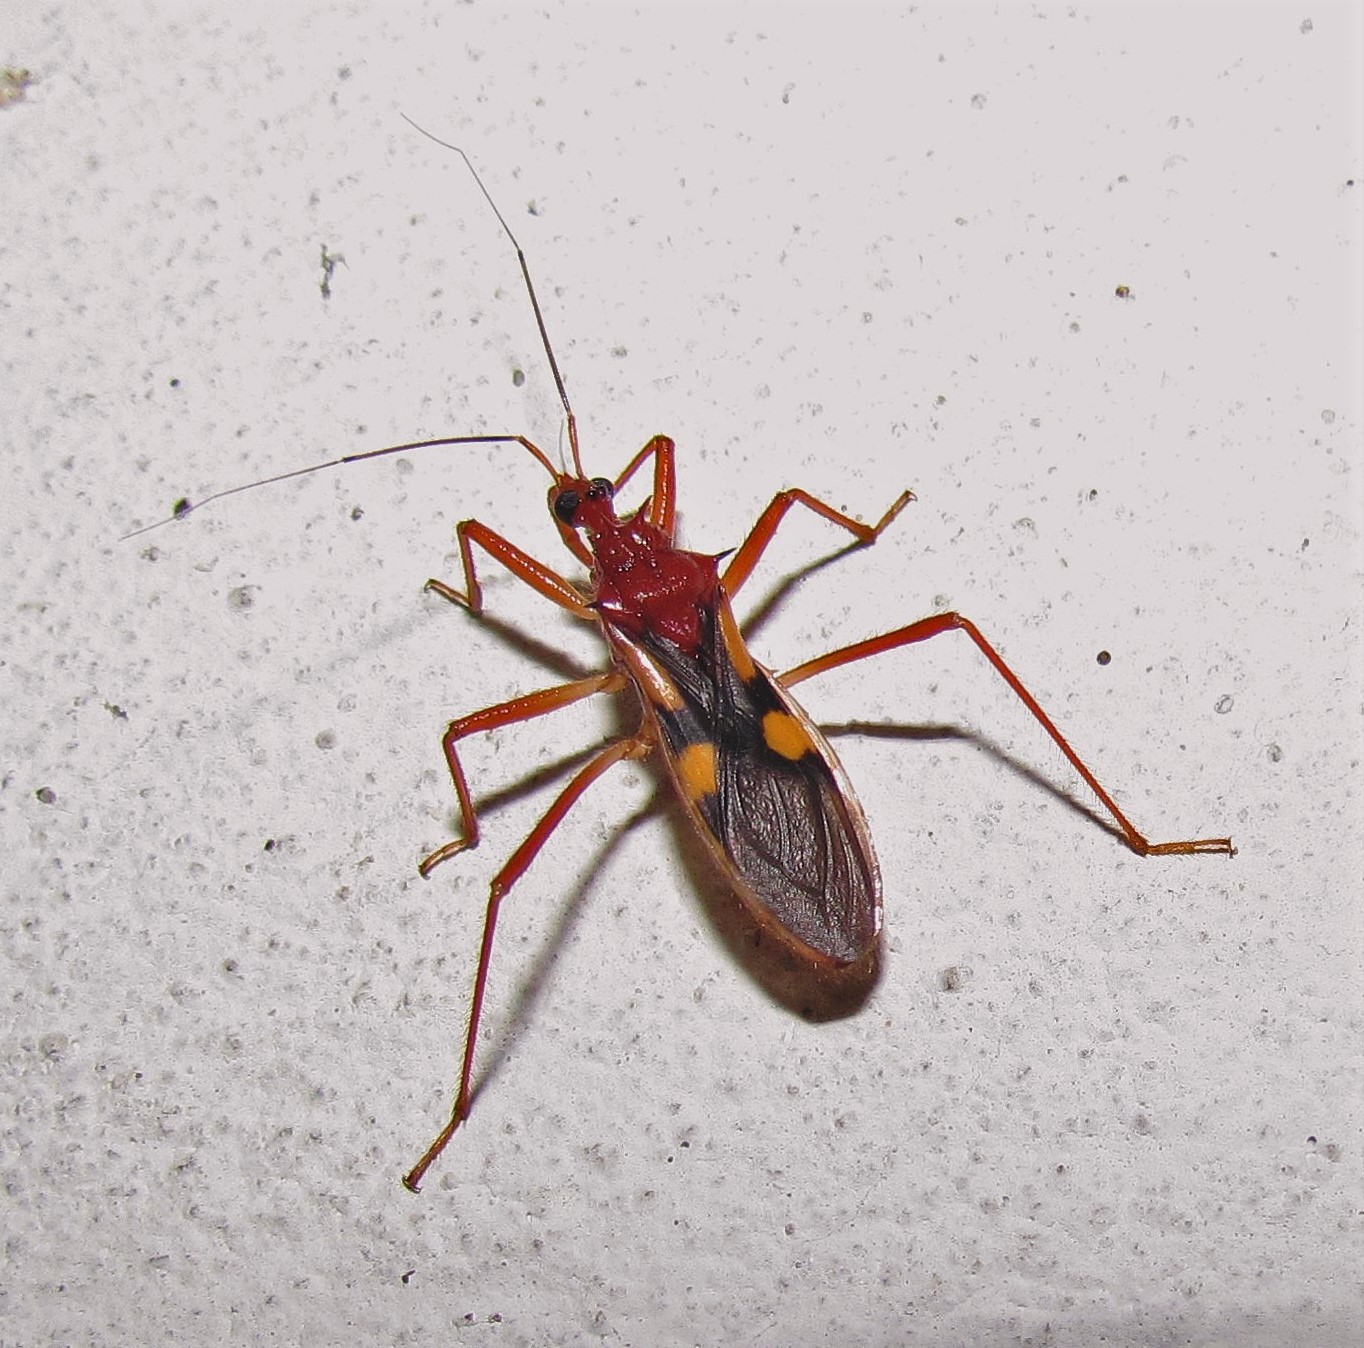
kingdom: Animalia
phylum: Arthropoda
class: Insecta
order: Hemiptera
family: Reduviidae
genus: Zelurus
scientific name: Zelurus transnominalis
